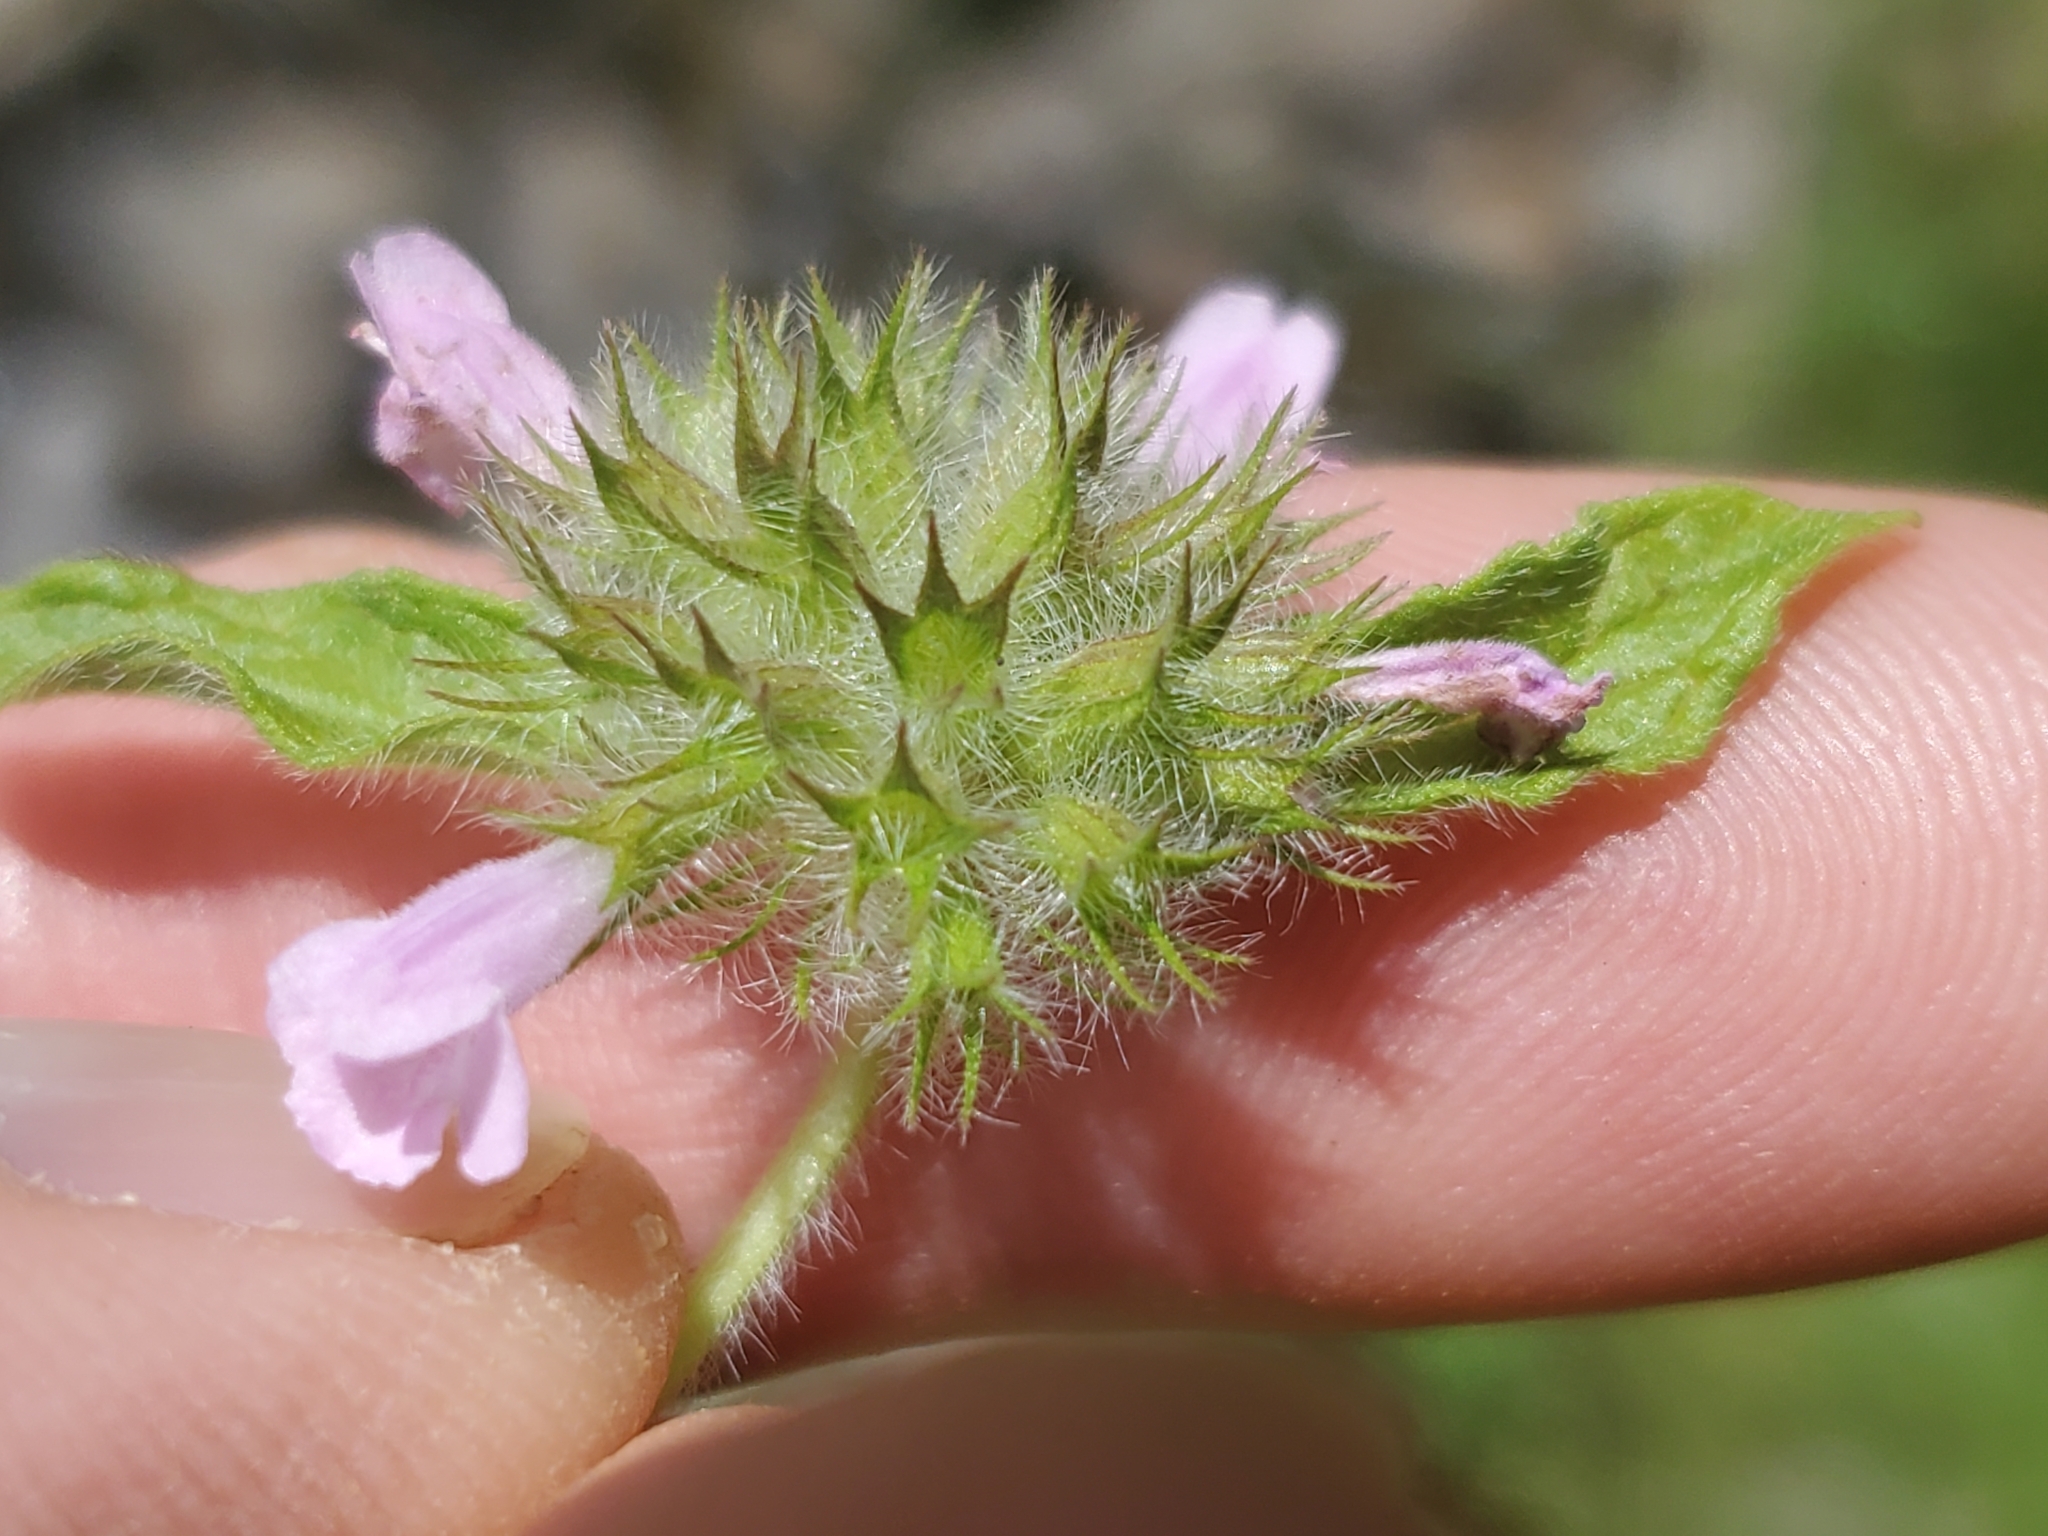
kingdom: Plantae
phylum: Tracheophyta
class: Magnoliopsida
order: Lamiales
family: Lamiaceae
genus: Clinopodium
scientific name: Clinopodium vulgare
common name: Wild basil
